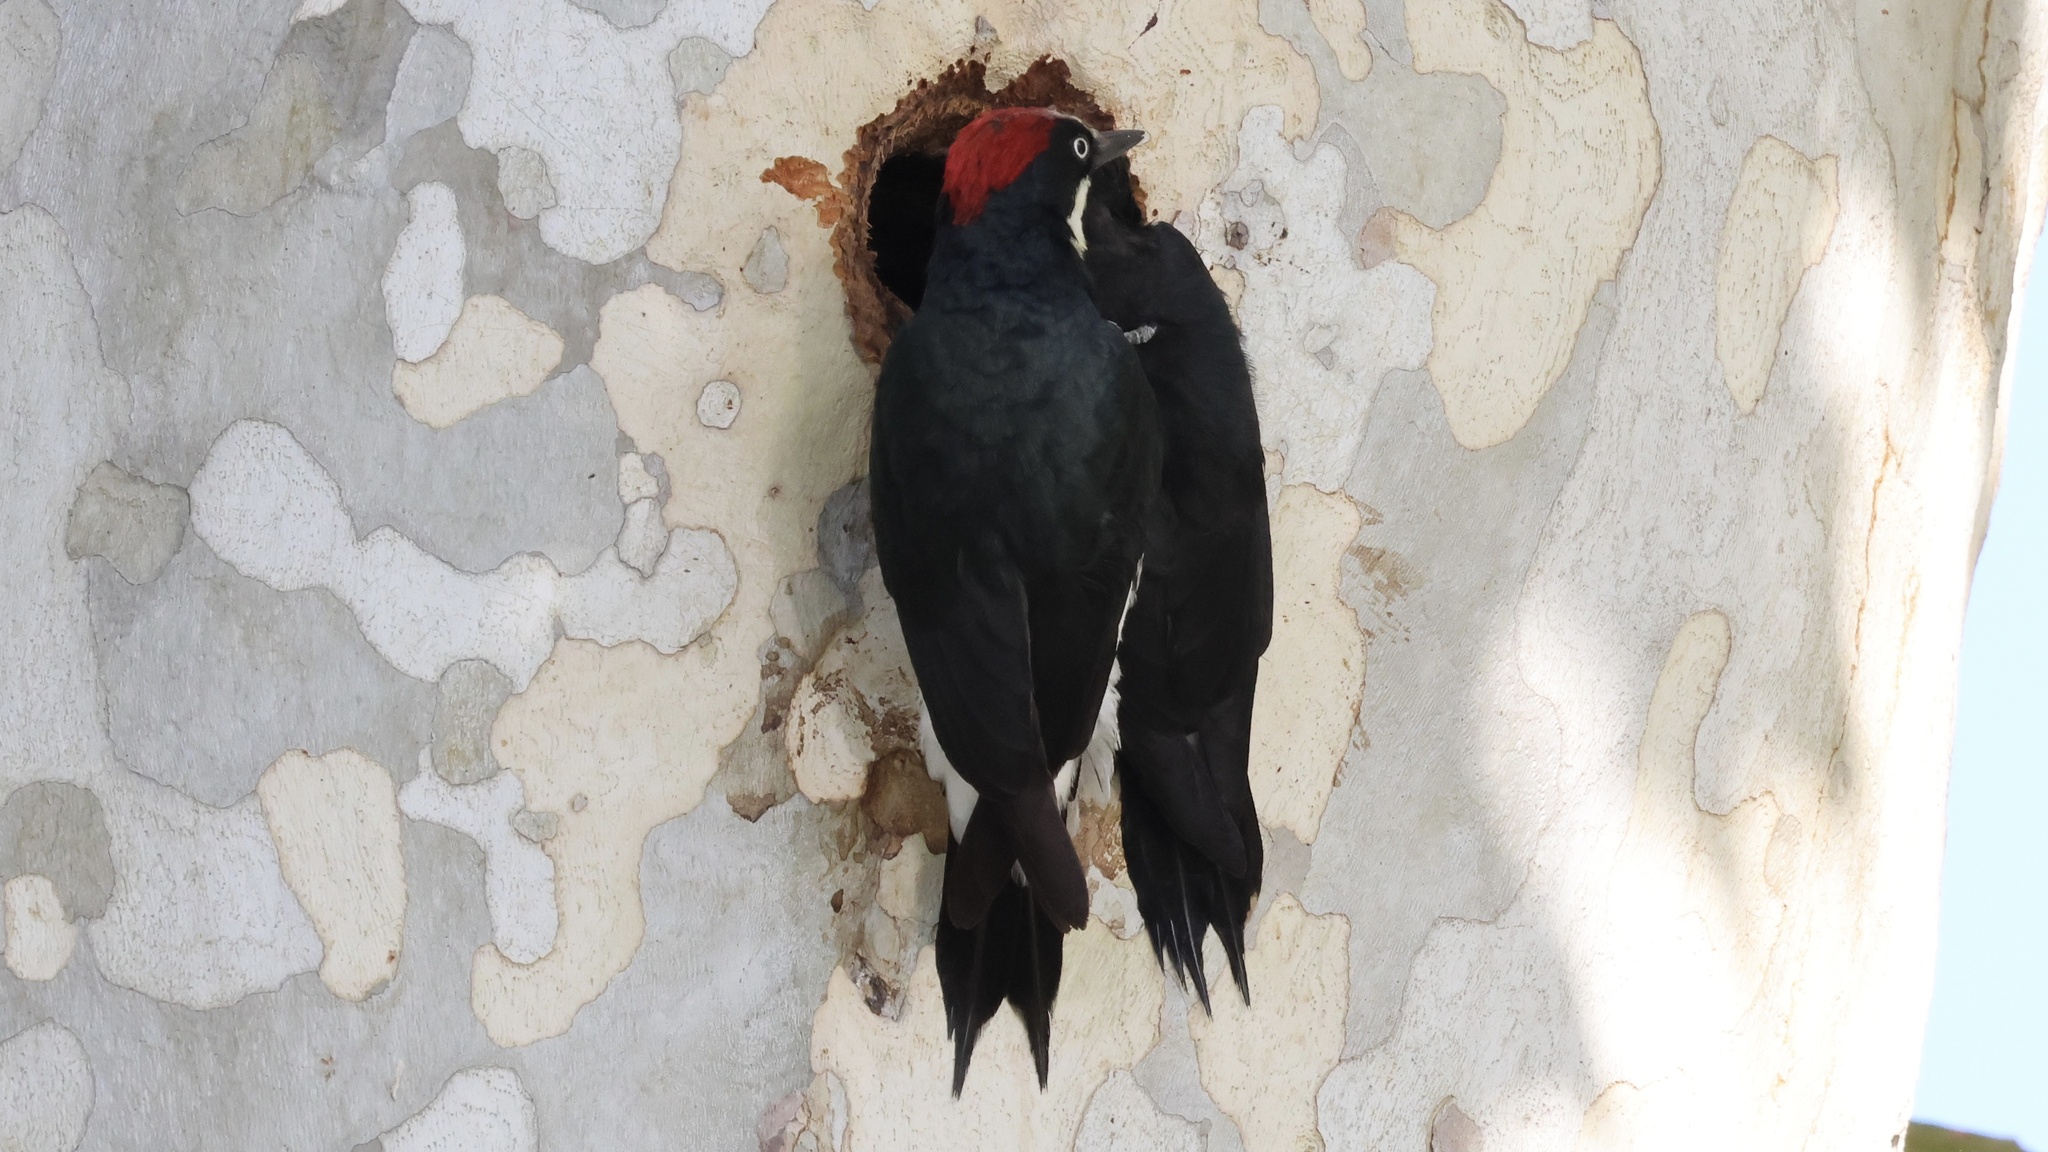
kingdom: Animalia
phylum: Chordata
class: Aves
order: Piciformes
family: Picidae
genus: Melanerpes
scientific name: Melanerpes formicivorus
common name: Acorn woodpecker
